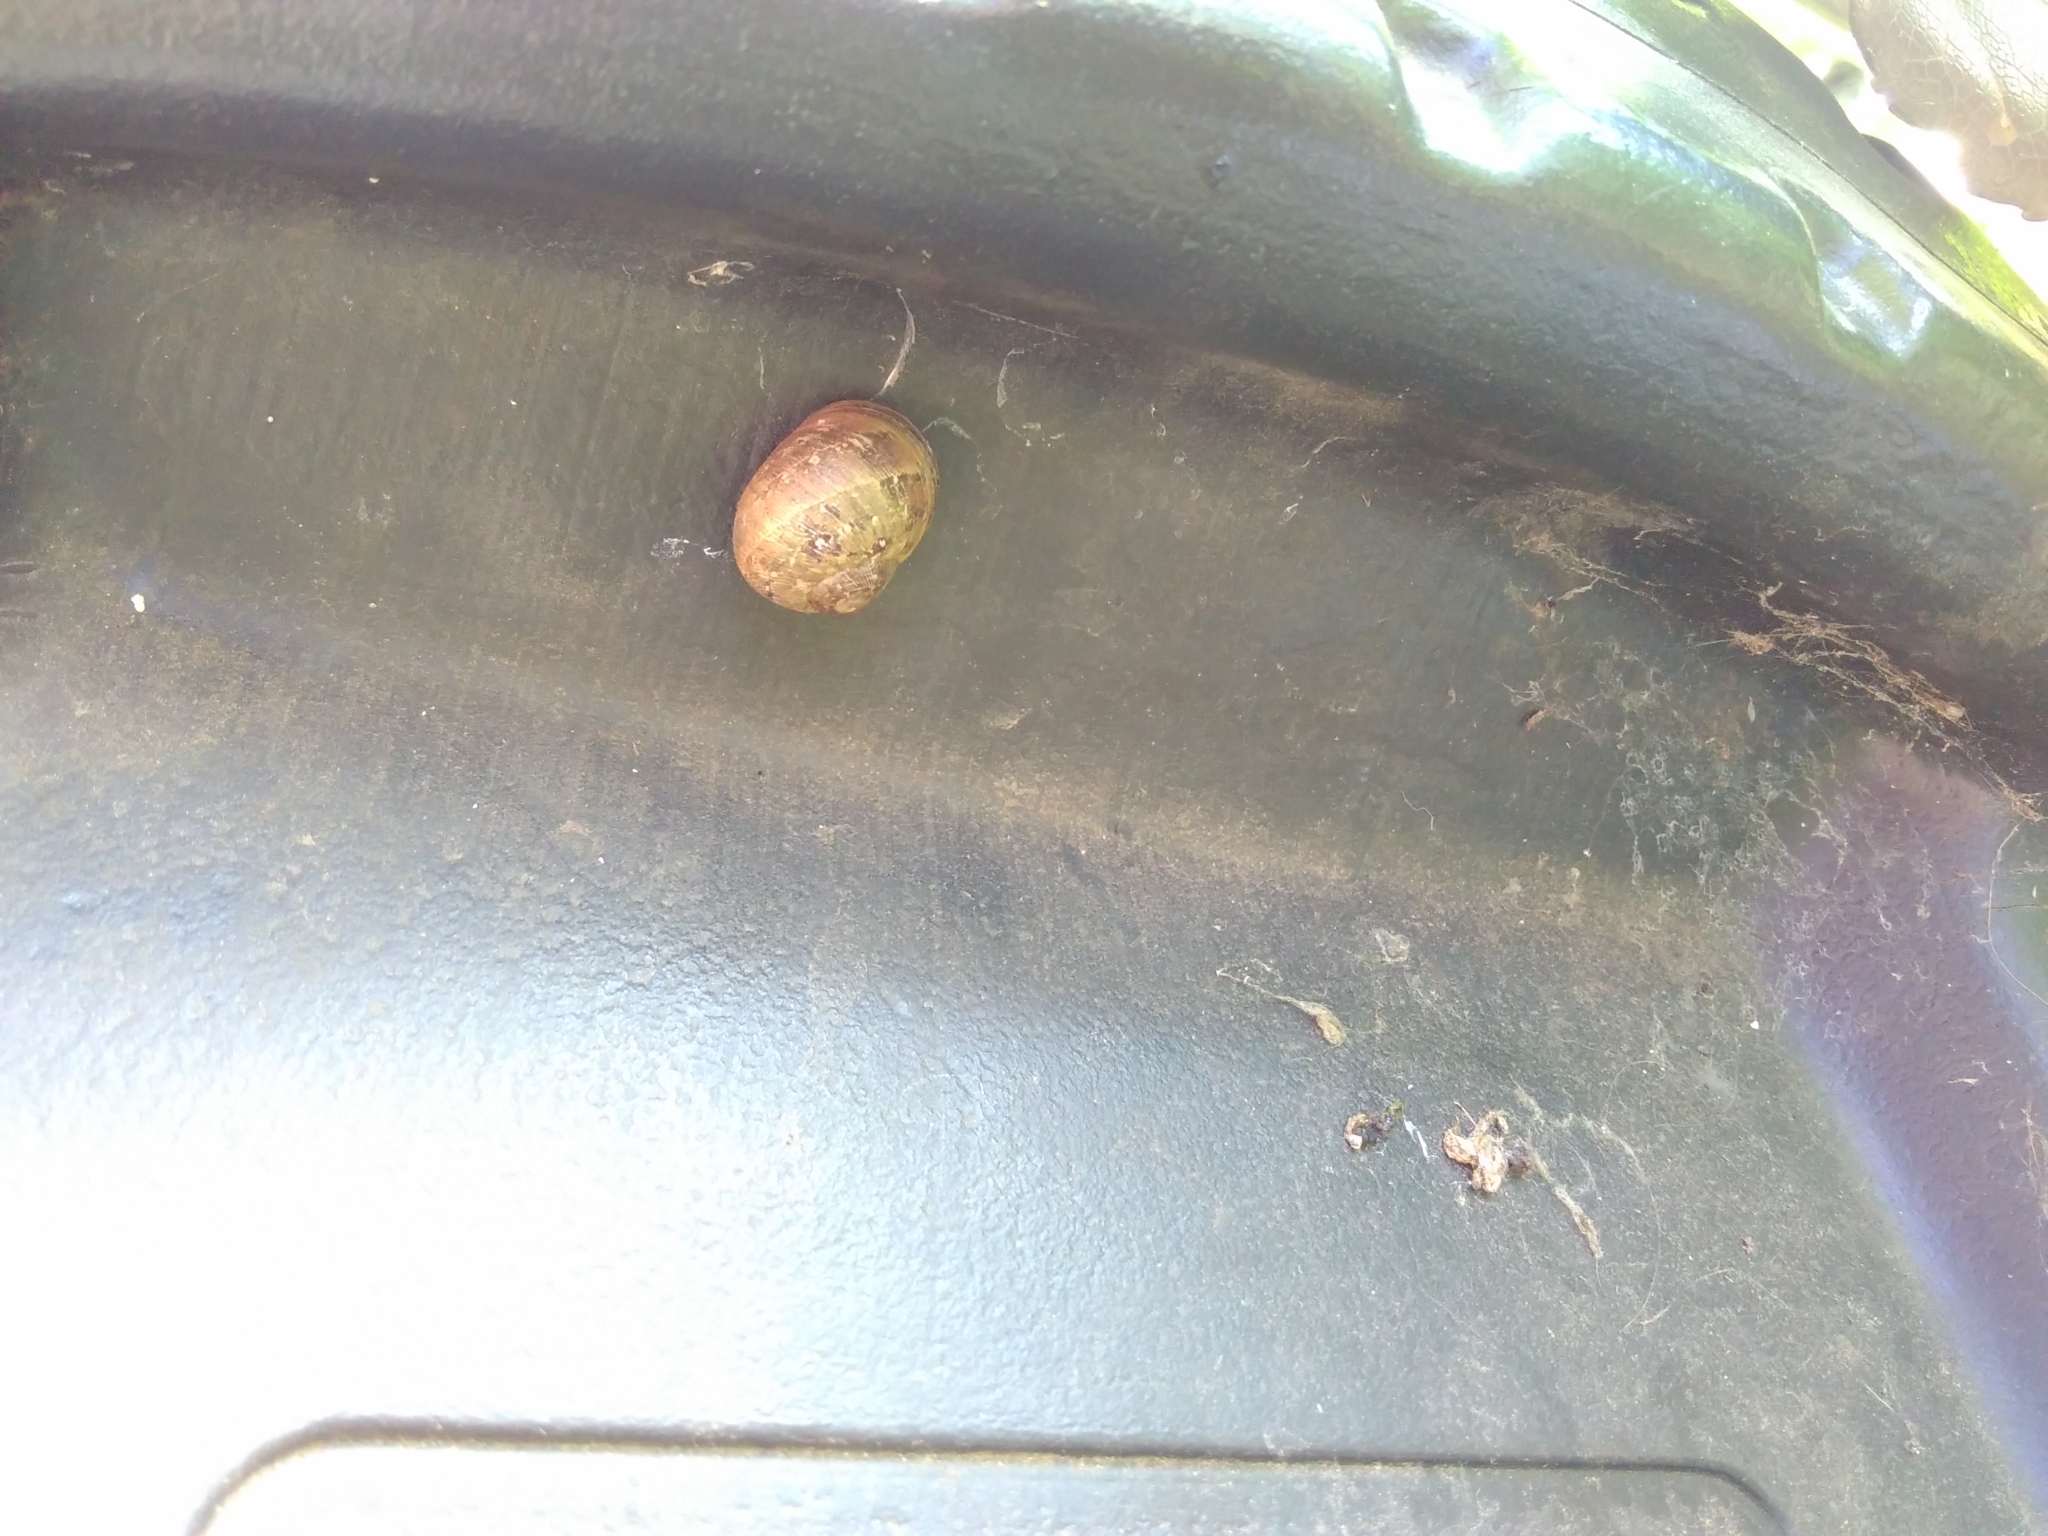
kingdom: Animalia
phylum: Mollusca
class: Gastropoda
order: Stylommatophora
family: Helicidae
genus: Cornu
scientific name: Cornu aspersum
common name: Brown garden snail
